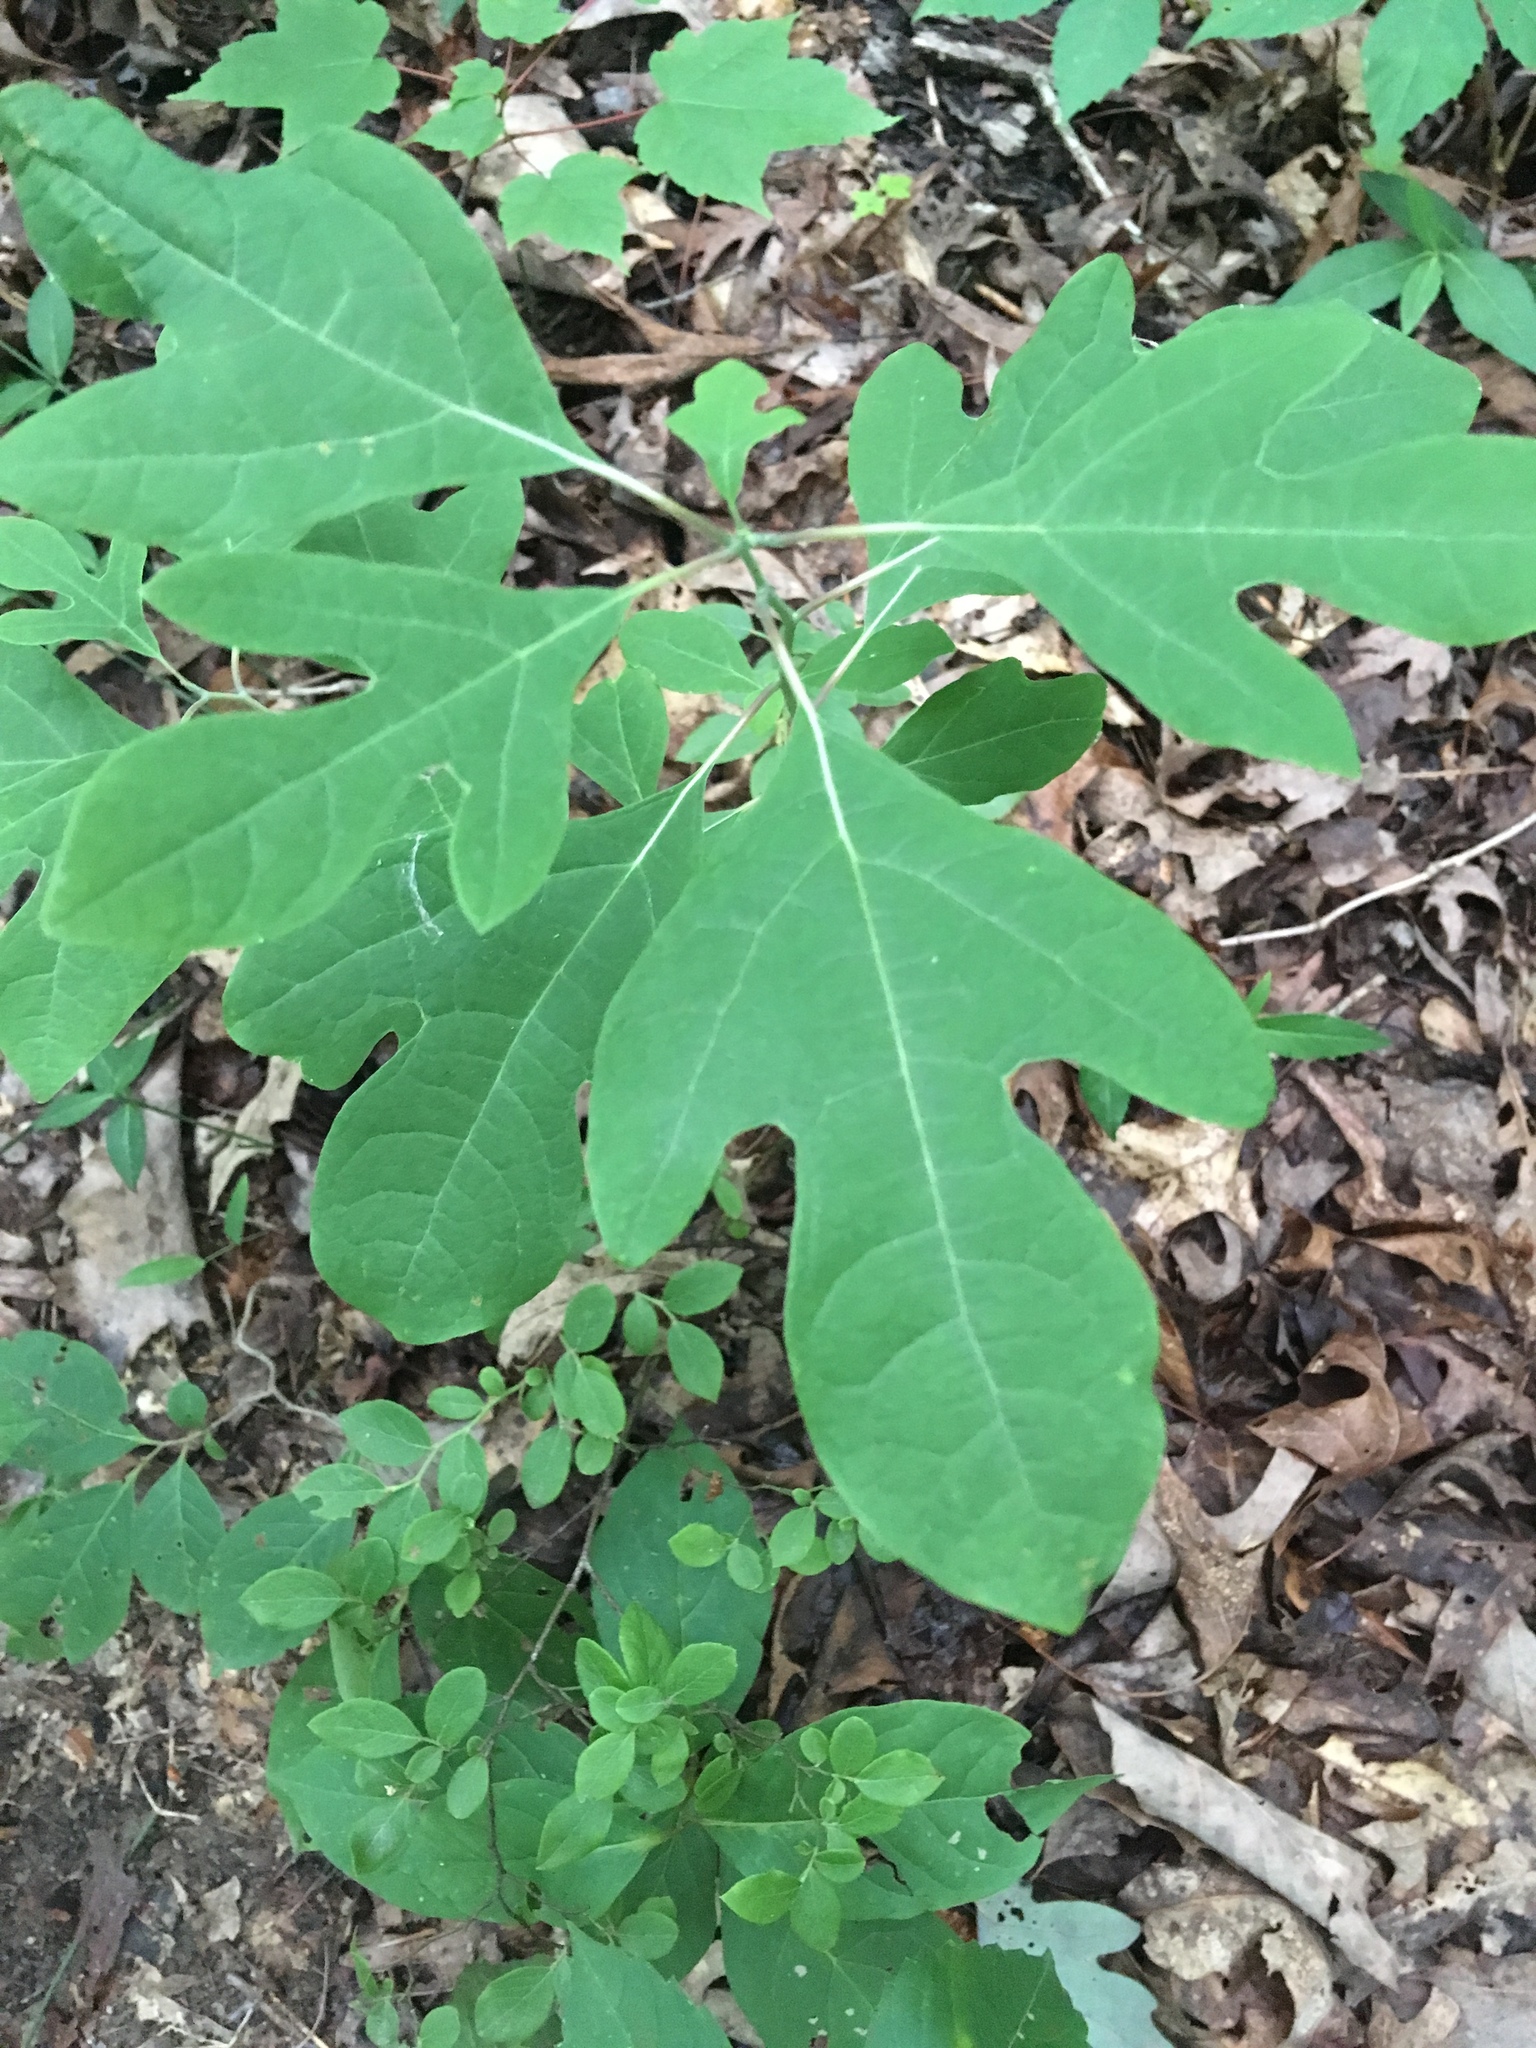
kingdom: Plantae
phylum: Tracheophyta
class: Magnoliopsida
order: Laurales
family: Lauraceae
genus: Sassafras
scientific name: Sassafras albidum
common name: Sassafras
